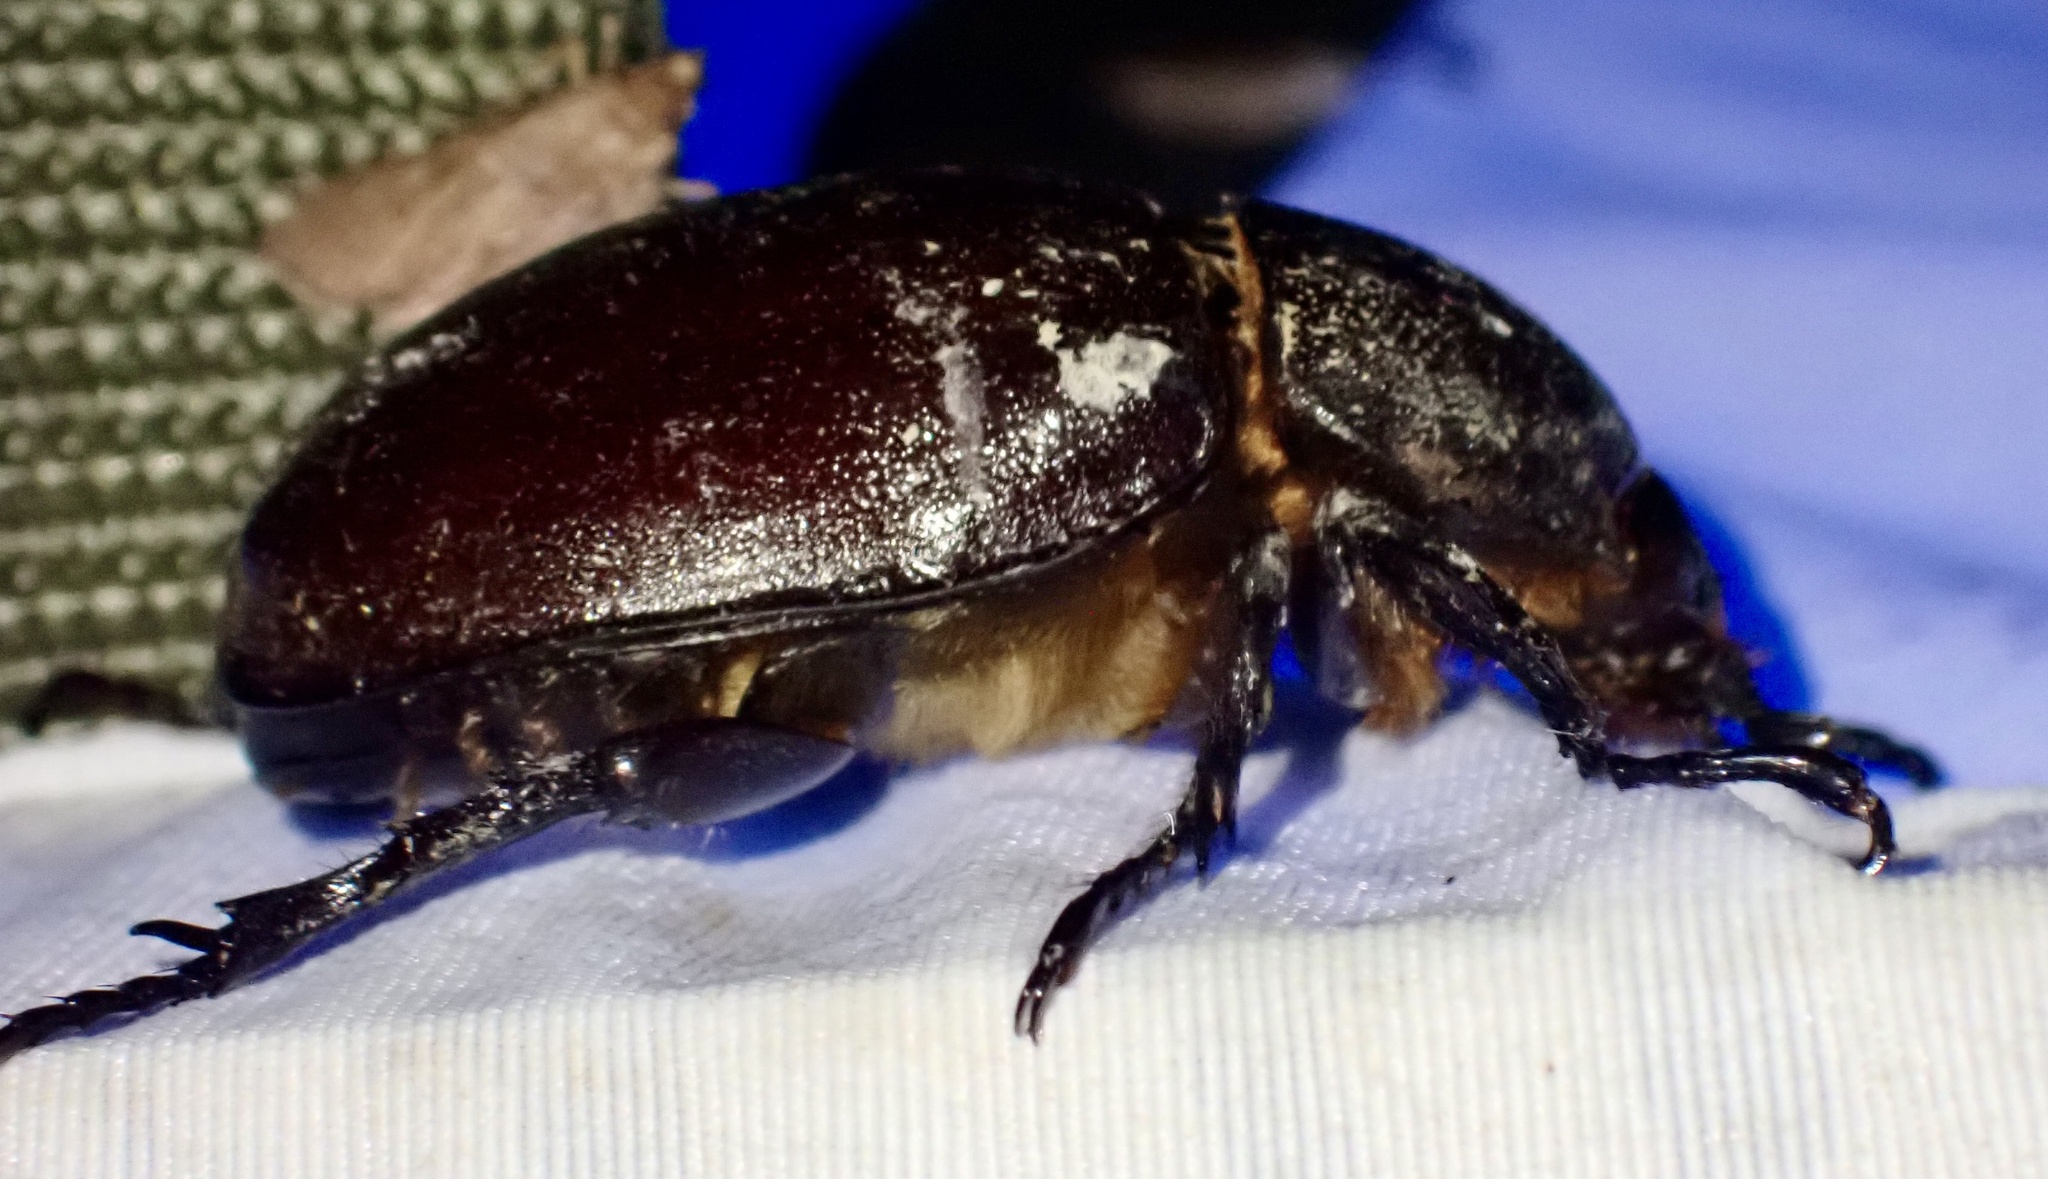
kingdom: Animalia
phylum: Arthropoda
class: Insecta
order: Coleoptera
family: Scarabaeidae
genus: Xylotrupes
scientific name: Xylotrupes carinulus
